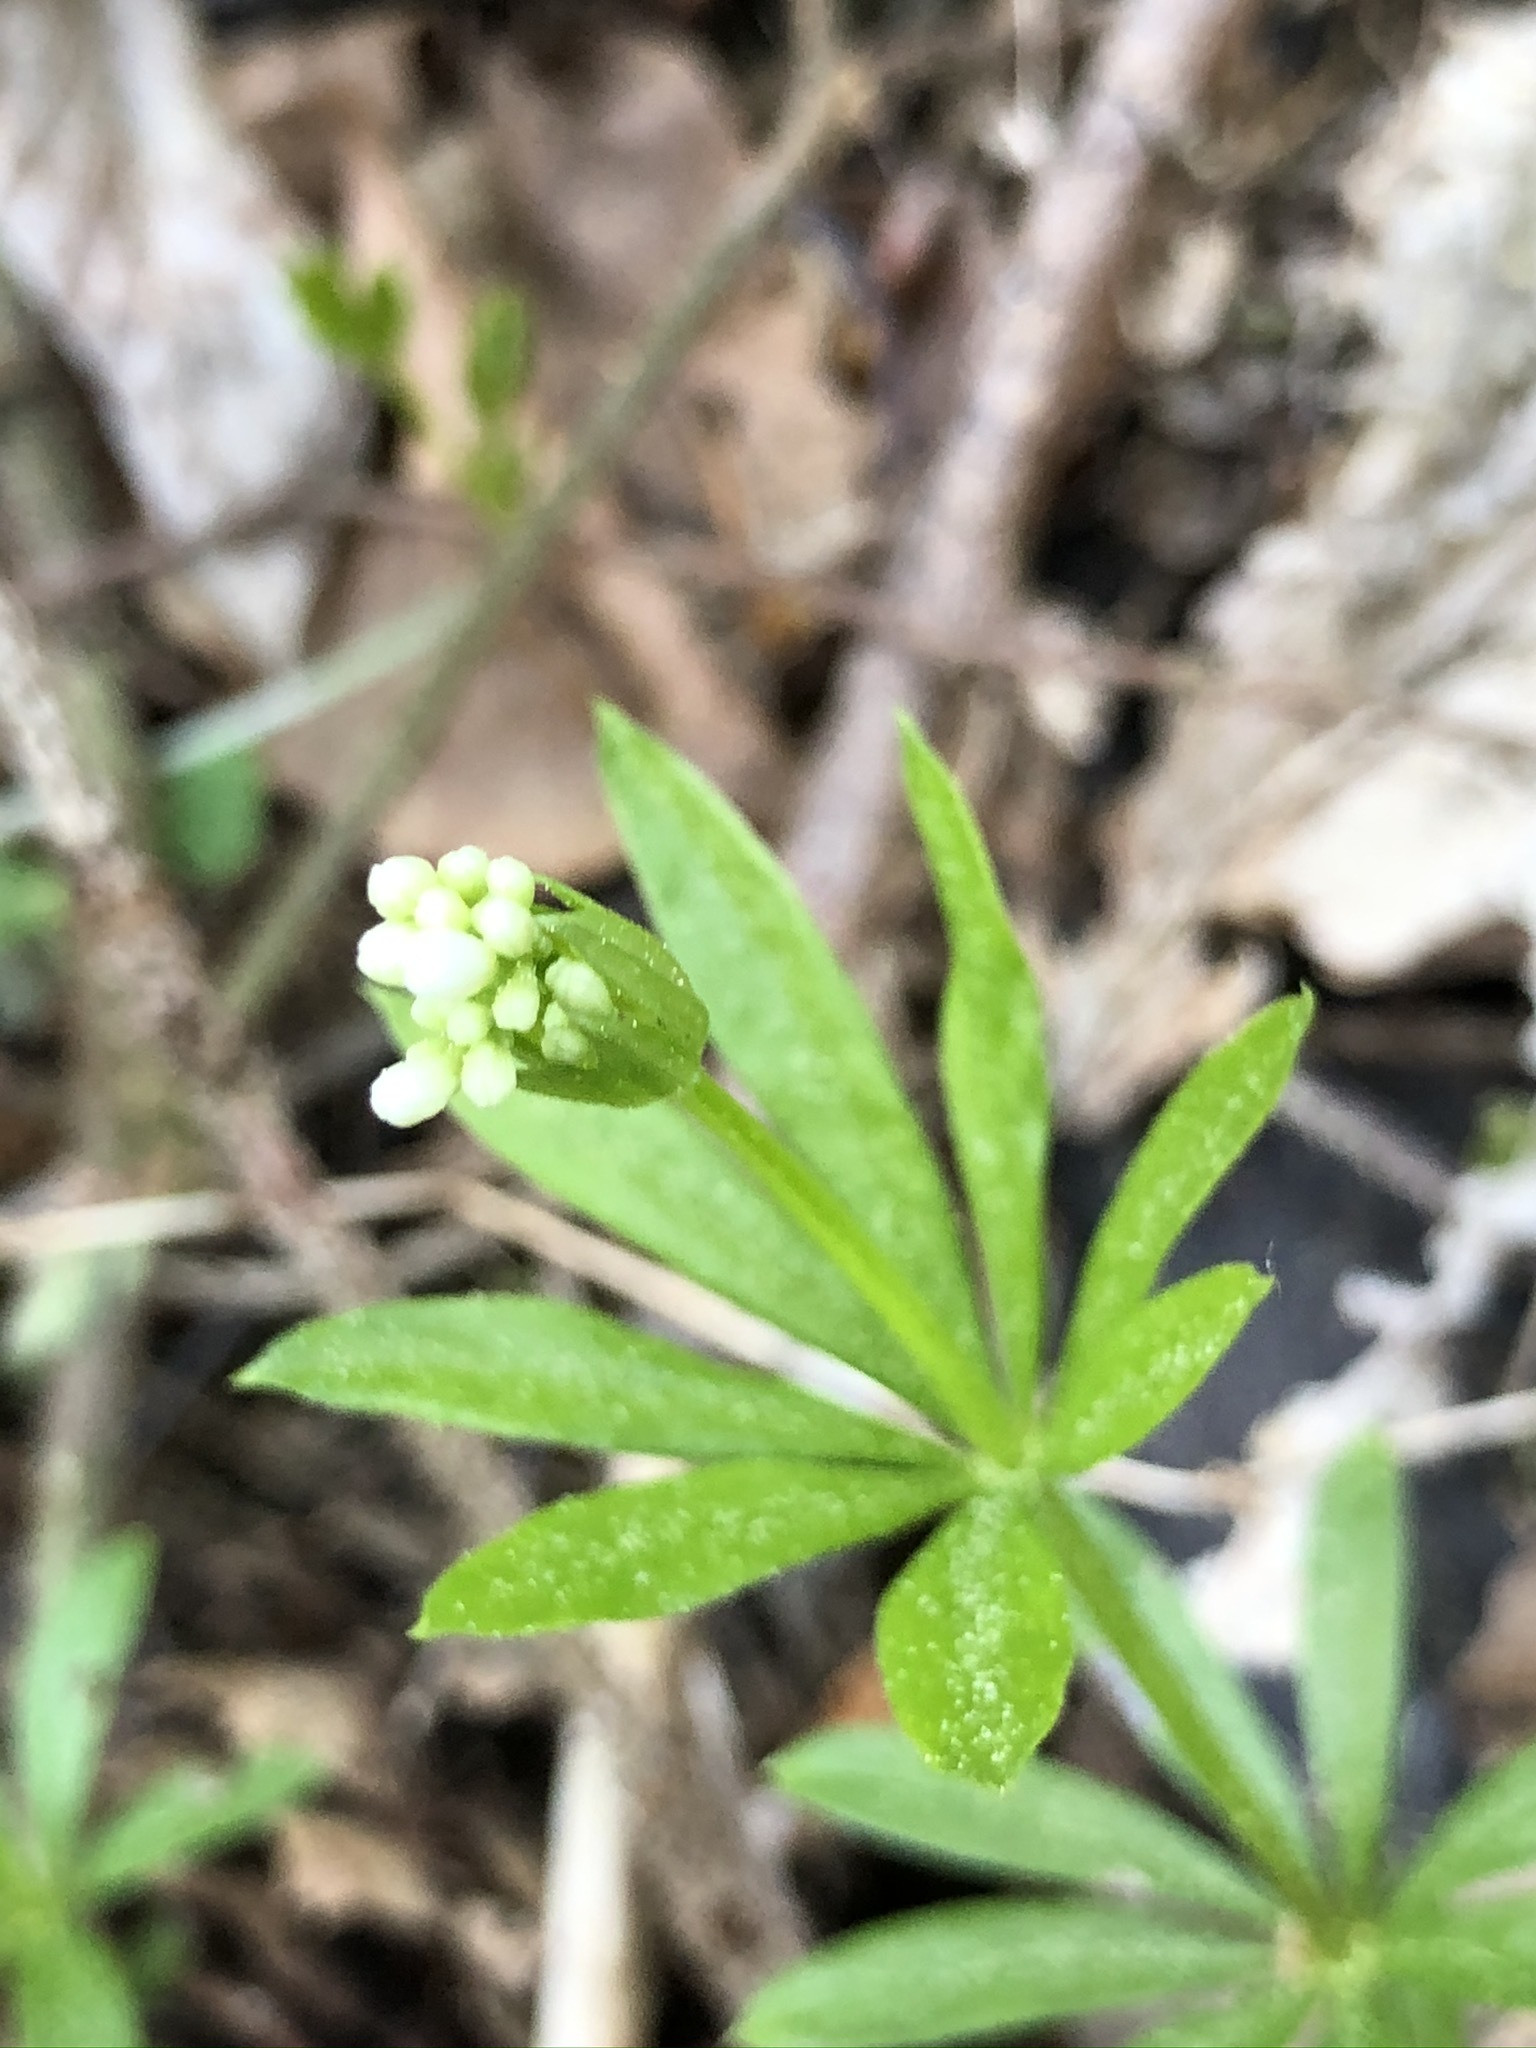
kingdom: Plantae
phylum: Tracheophyta
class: Magnoliopsida
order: Gentianales
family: Rubiaceae
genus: Galium
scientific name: Galium odoratum
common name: Sweet woodruff
